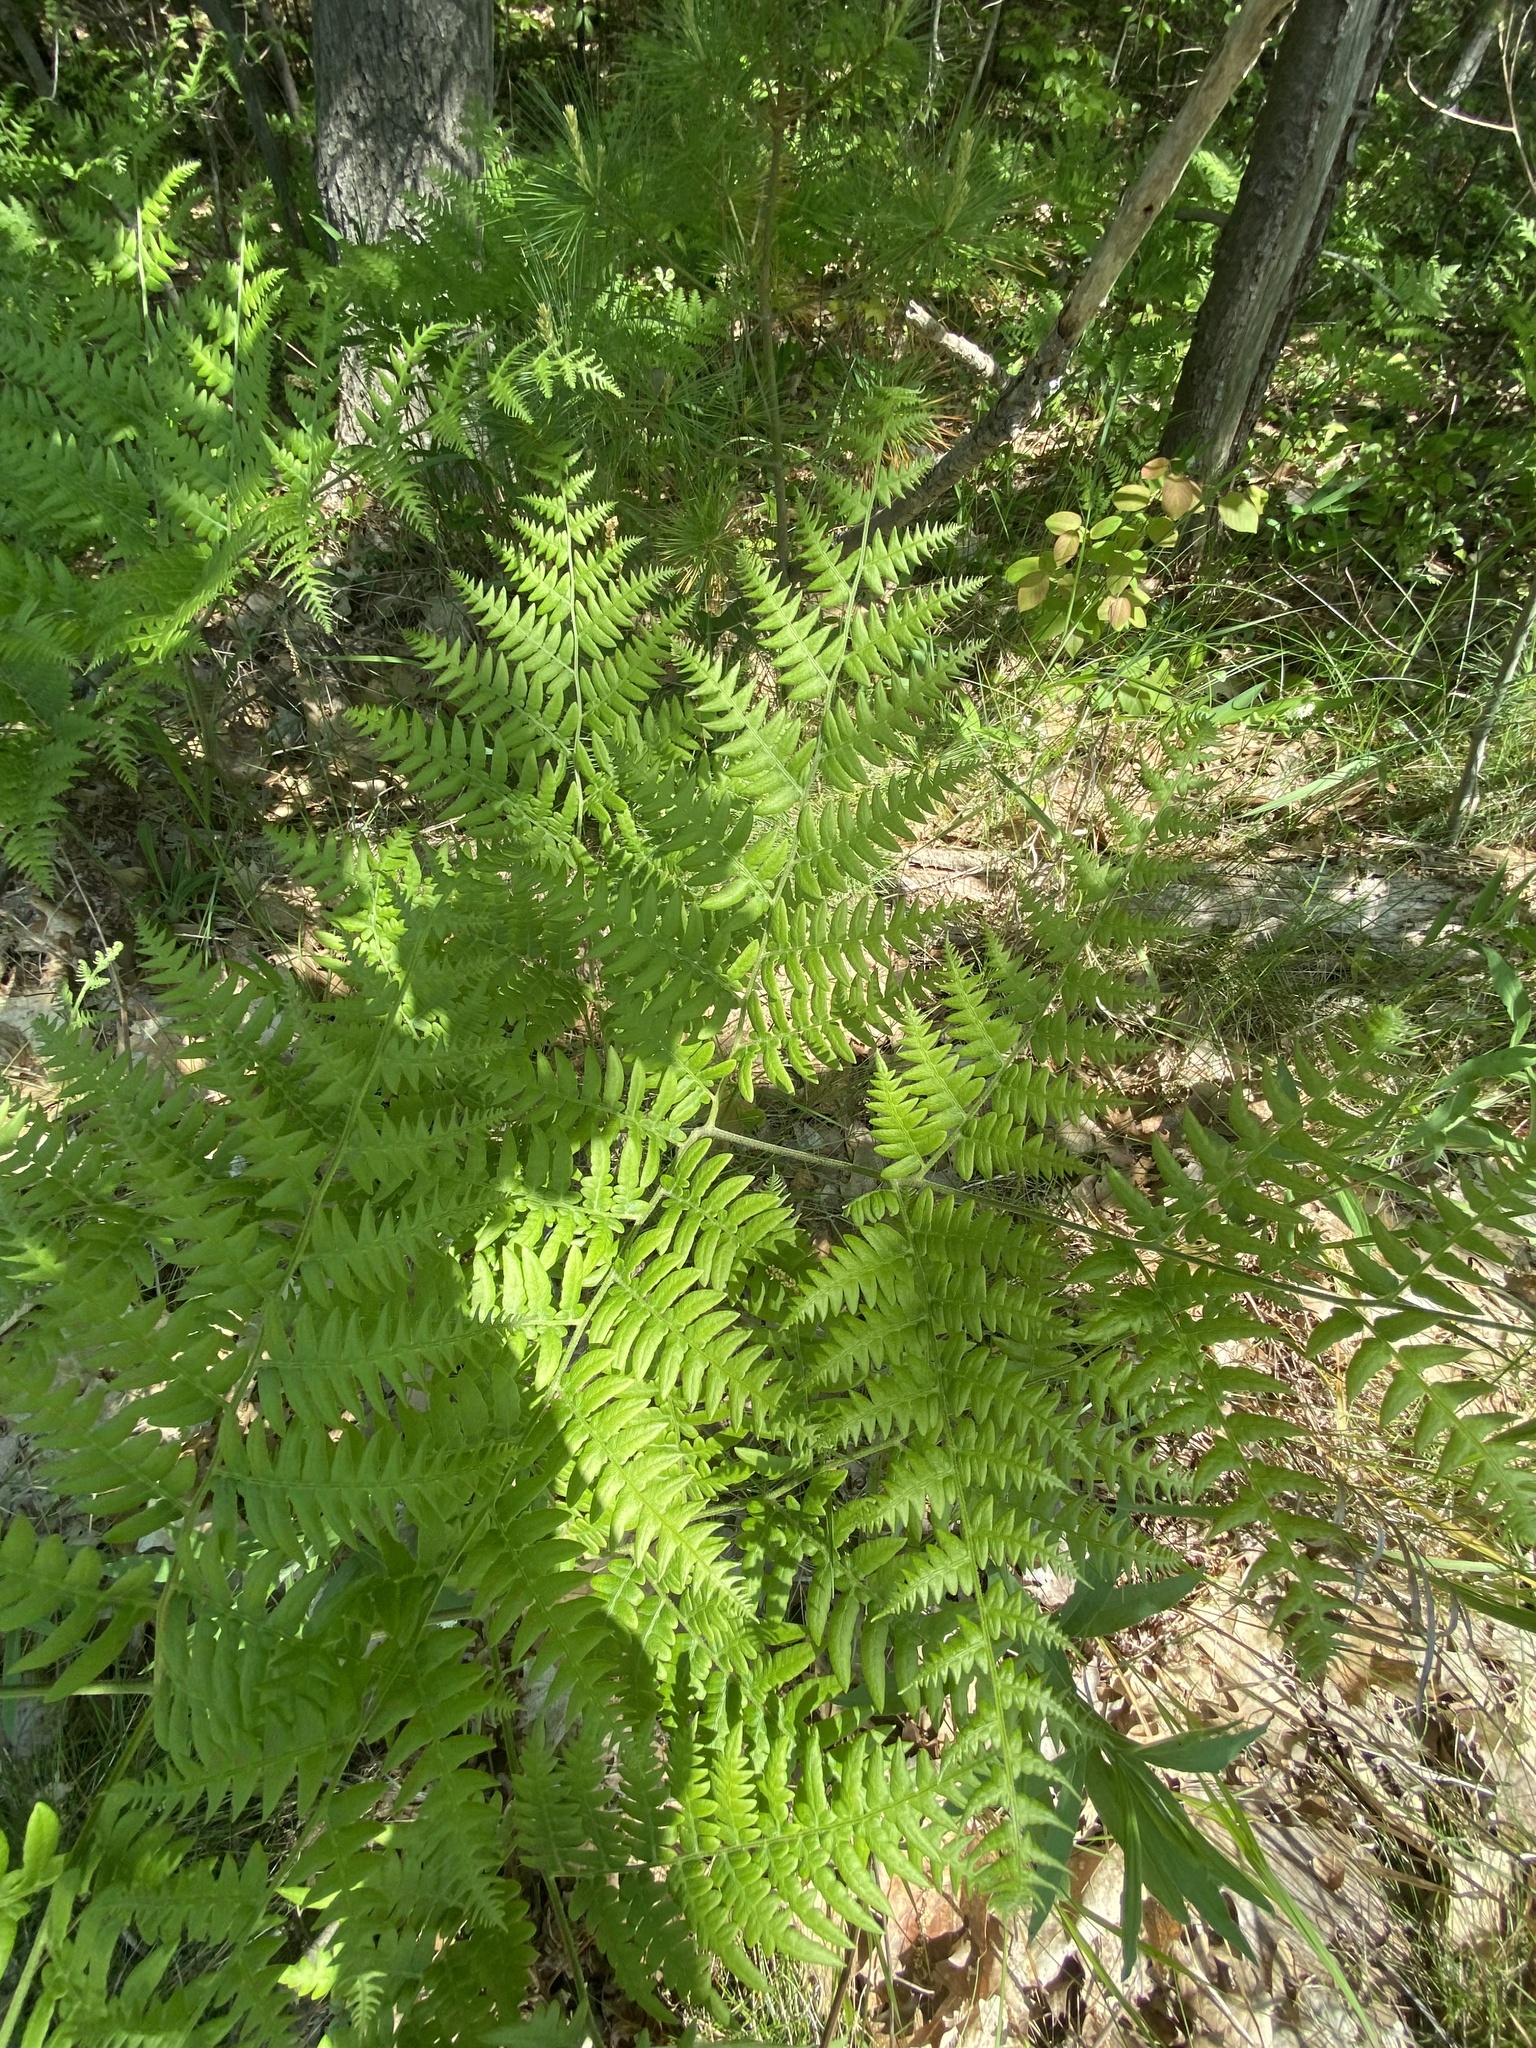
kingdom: Plantae
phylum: Tracheophyta
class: Polypodiopsida
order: Polypodiales
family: Dennstaedtiaceae
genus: Pteridium
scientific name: Pteridium aquilinum
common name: Bracken
